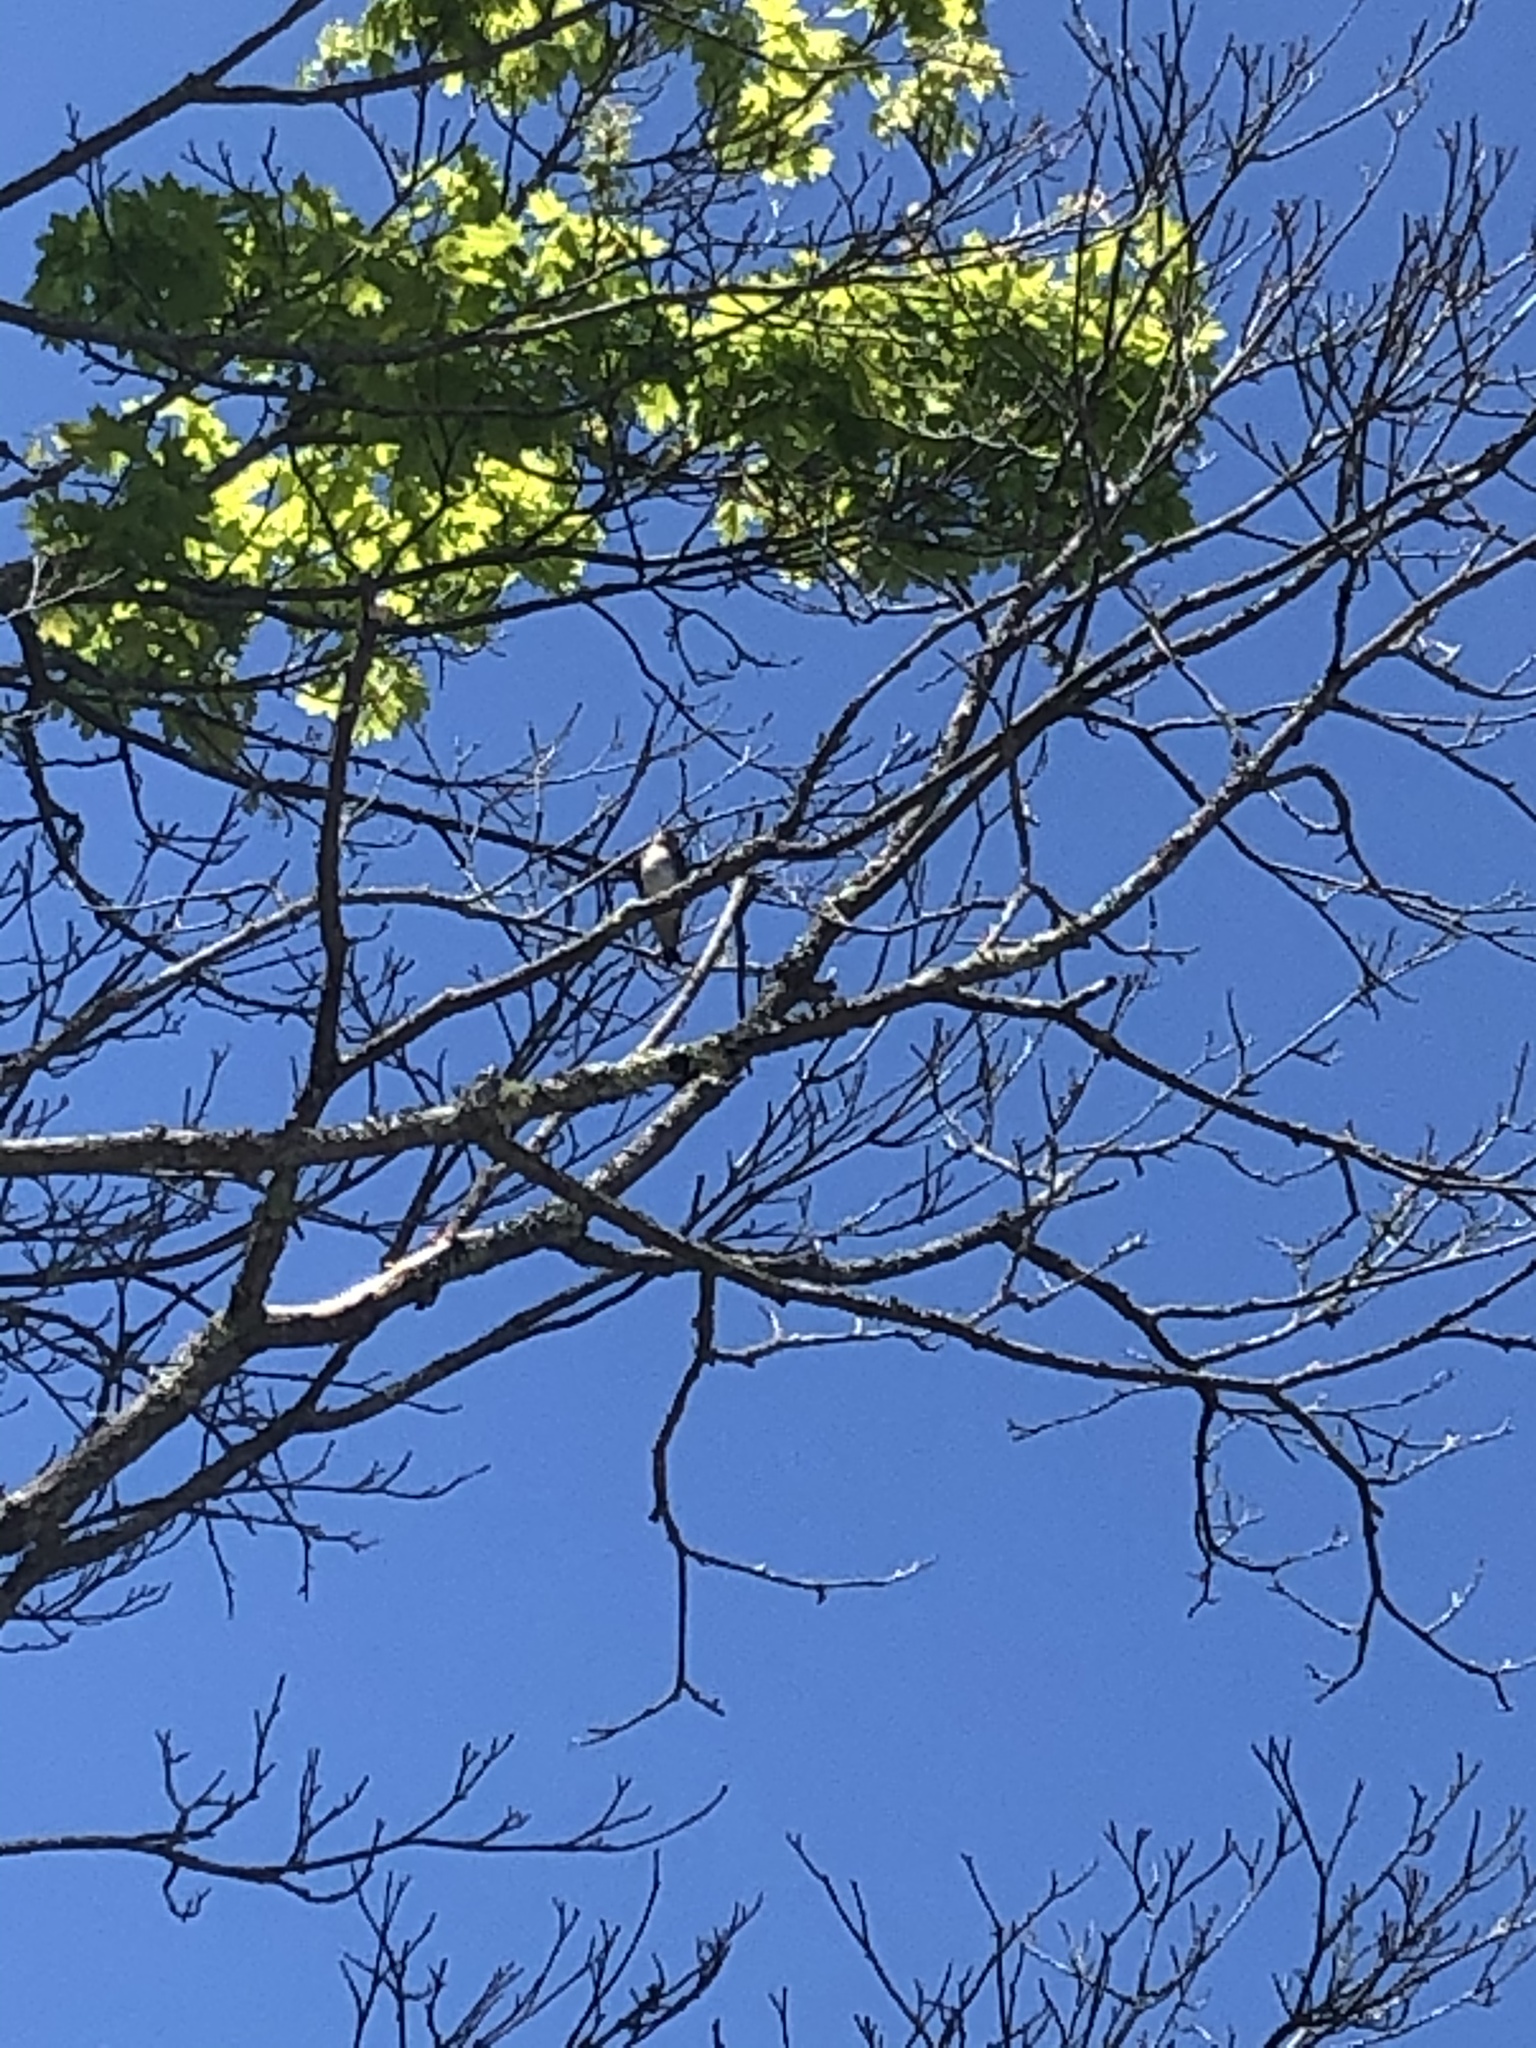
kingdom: Animalia
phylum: Chordata
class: Aves
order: Passeriformes
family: Hirundinidae
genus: Tachycineta
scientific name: Tachycineta bicolor
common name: Tree swallow
